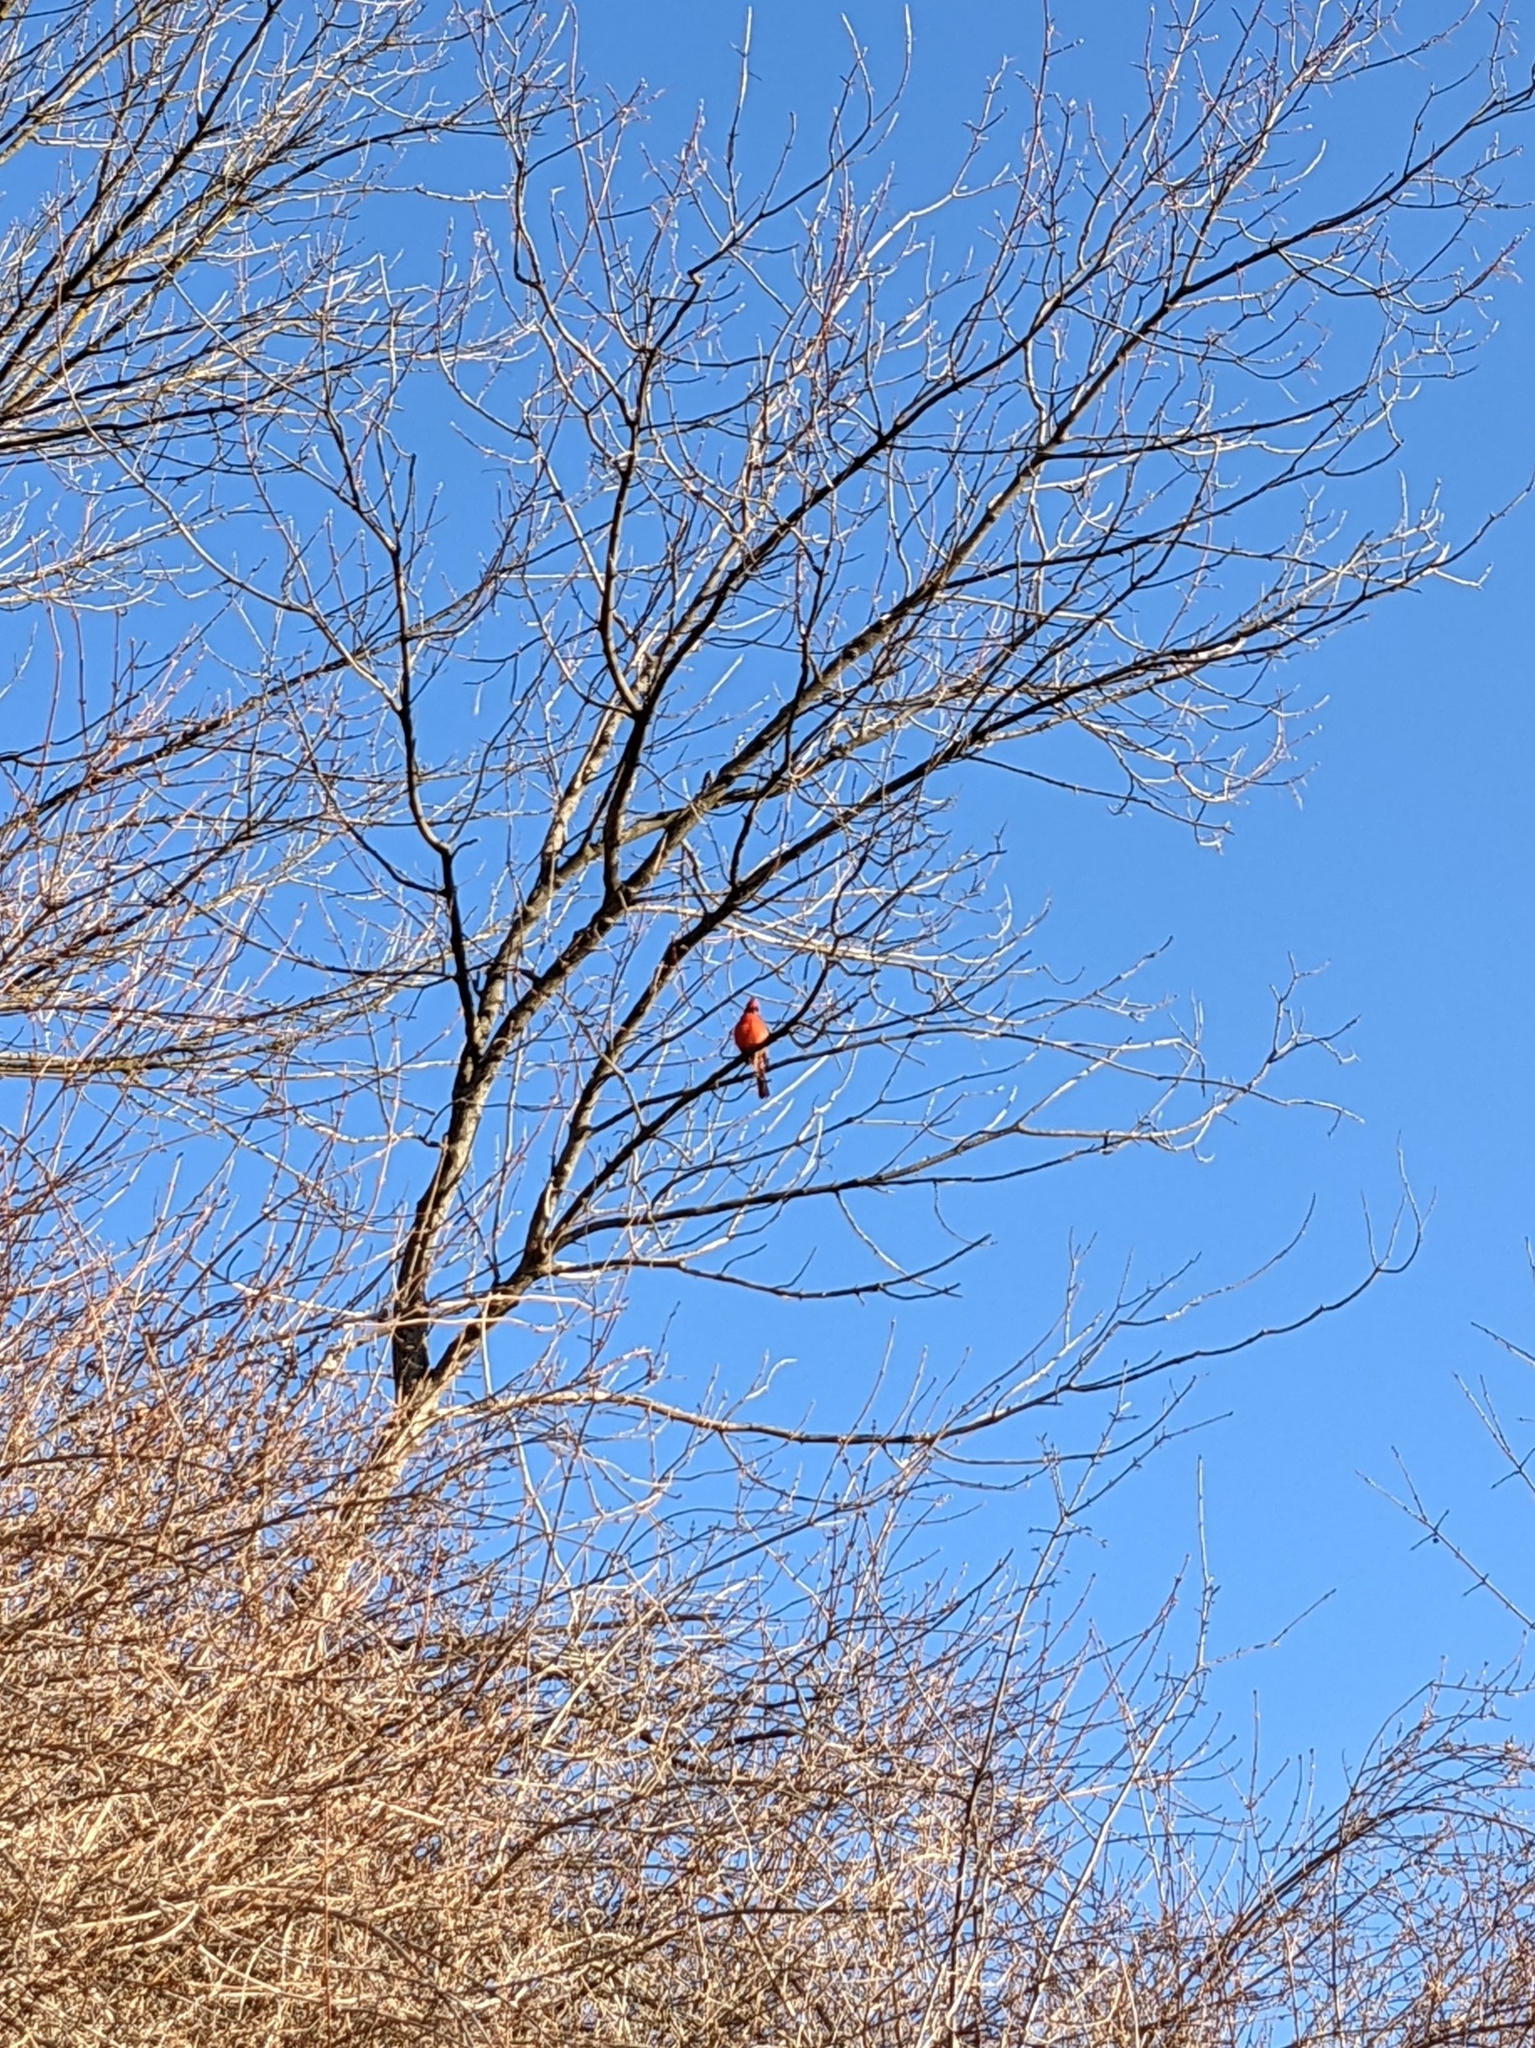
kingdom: Animalia
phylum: Chordata
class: Aves
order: Passeriformes
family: Cardinalidae
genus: Cardinalis
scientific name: Cardinalis cardinalis
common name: Northern cardinal
